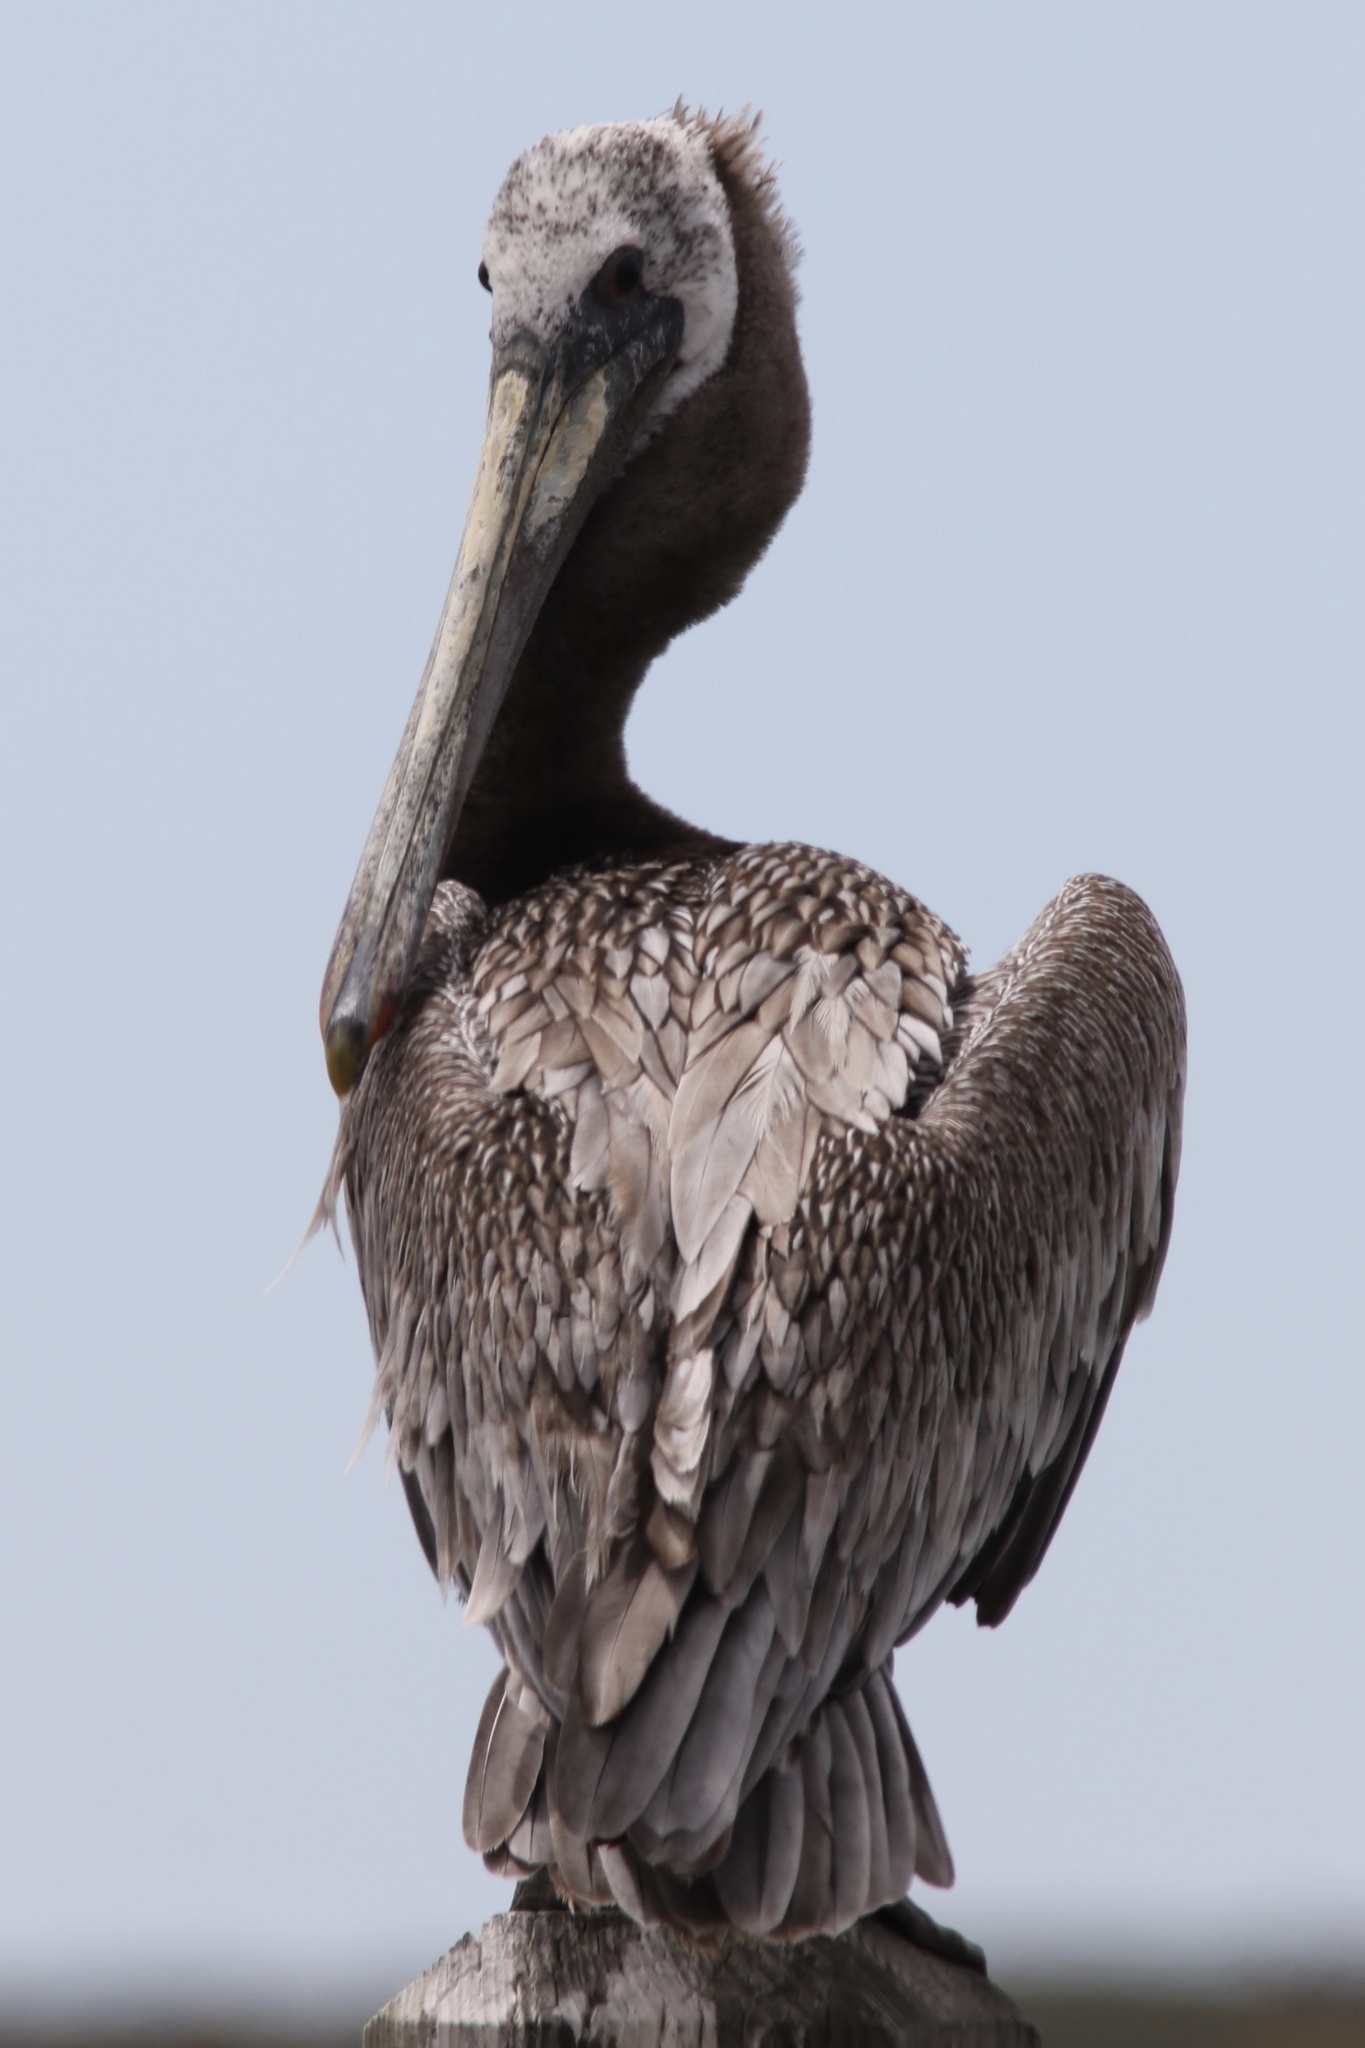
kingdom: Animalia
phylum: Chordata
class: Aves
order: Pelecaniformes
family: Pelecanidae
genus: Pelecanus
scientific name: Pelecanus occidentalis
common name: Brown pelican
